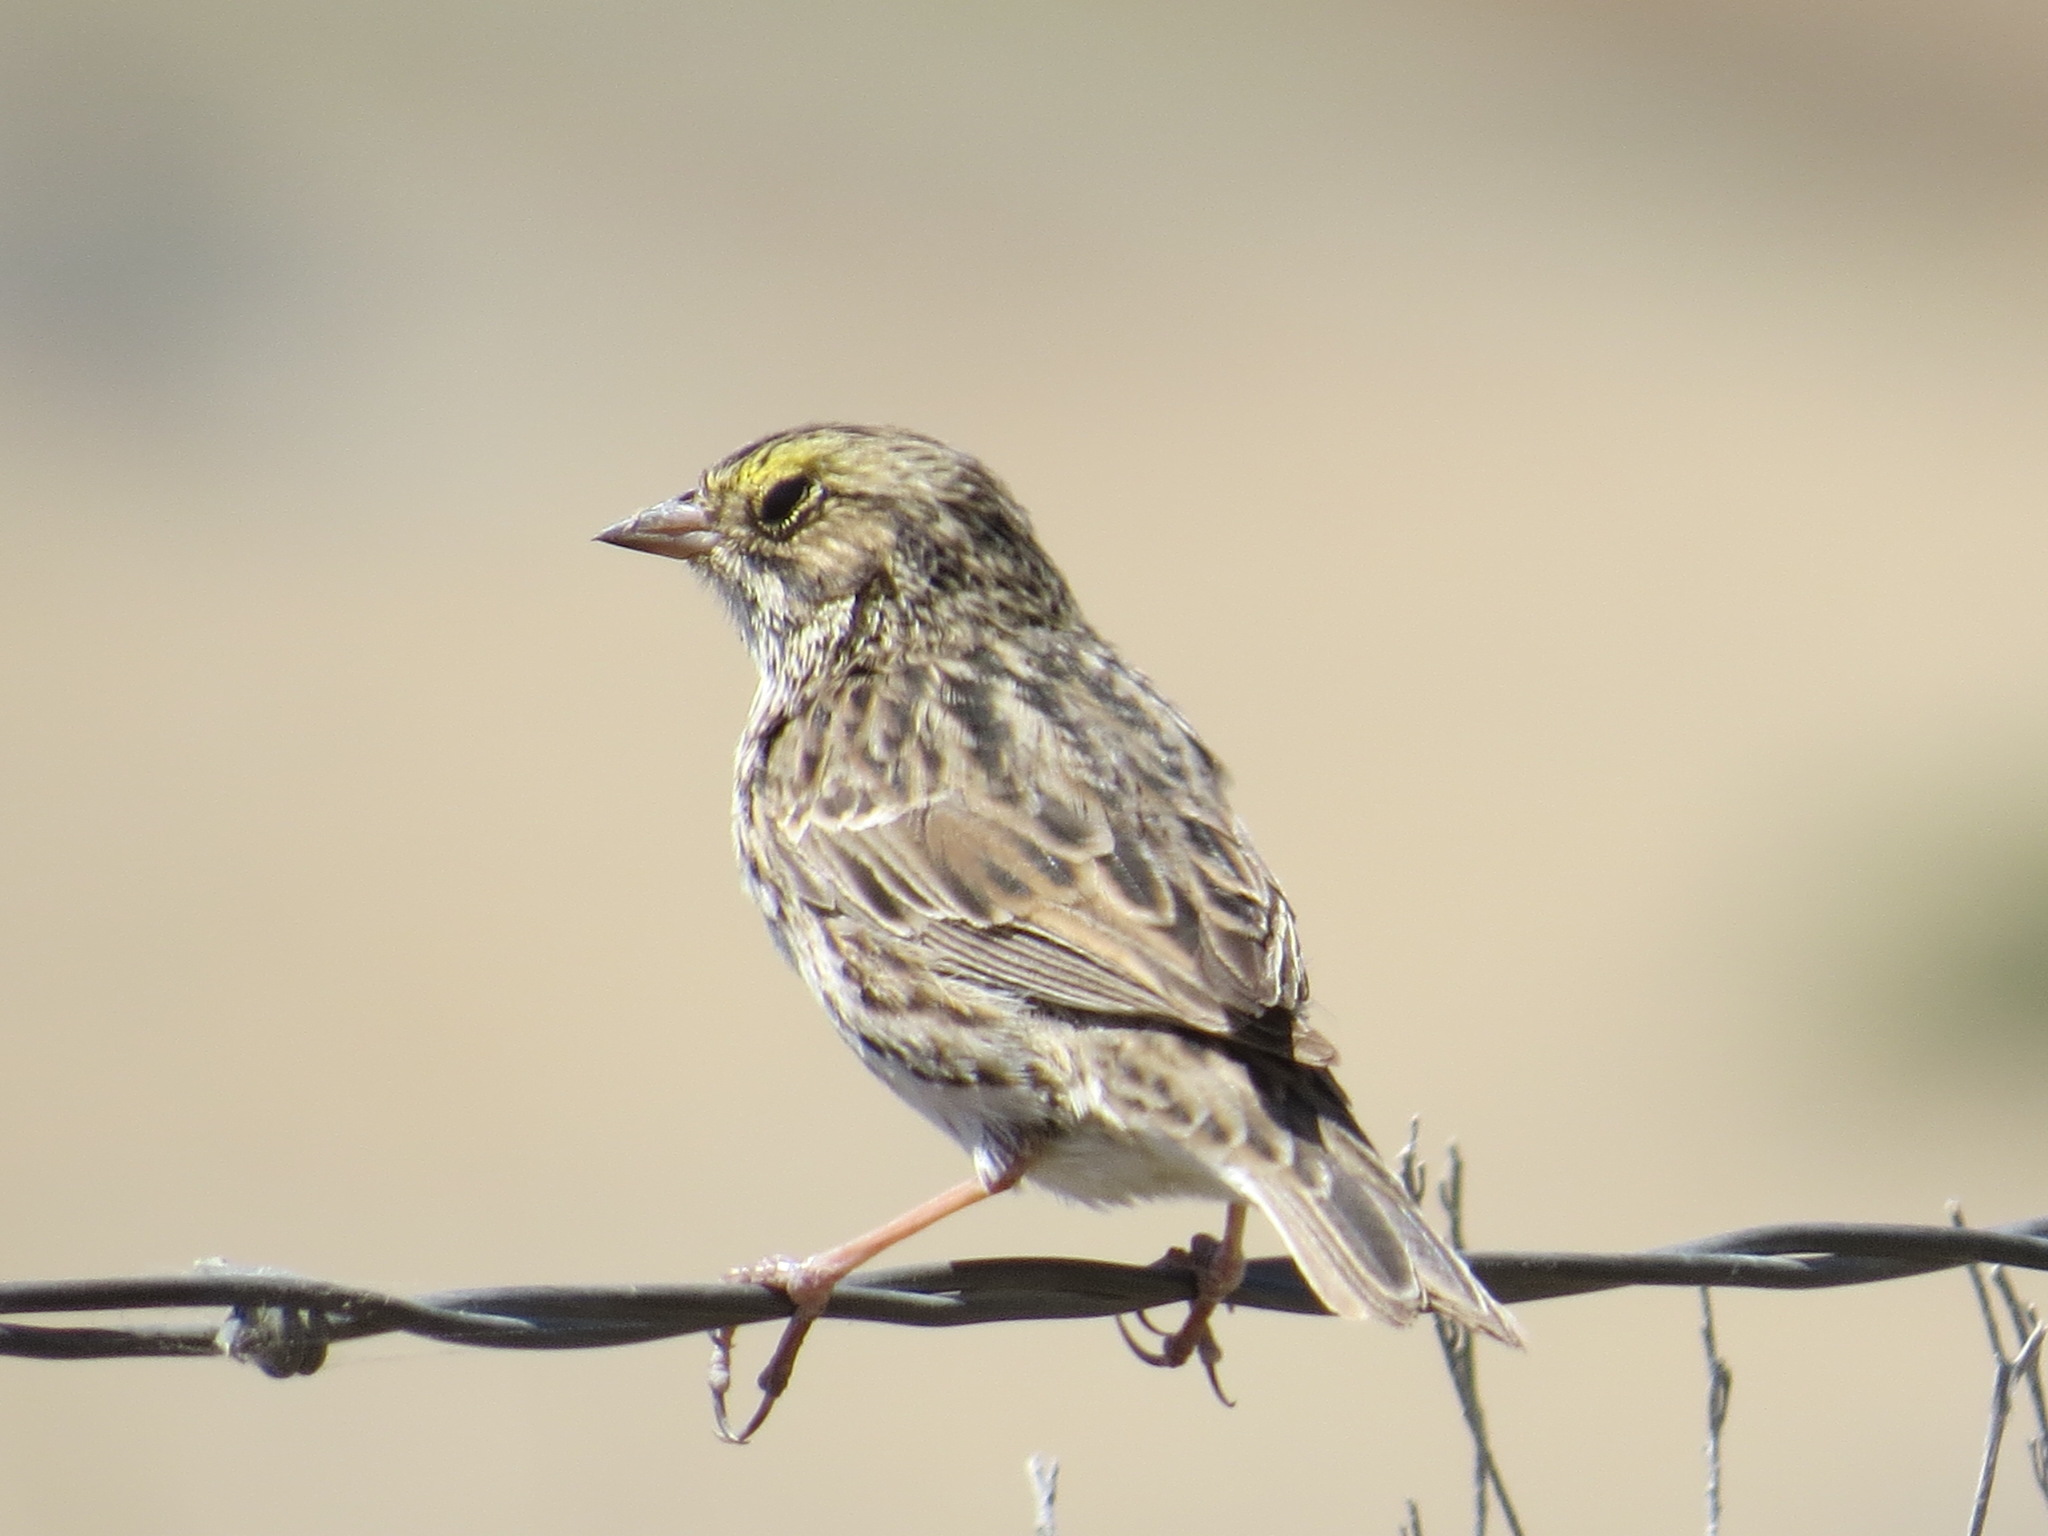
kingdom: Animalia
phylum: Chordata
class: Aves
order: Passeriformes
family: Passerellidae
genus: Passerculus
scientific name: Passerculus sandwichensis
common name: Savannah sparrow
